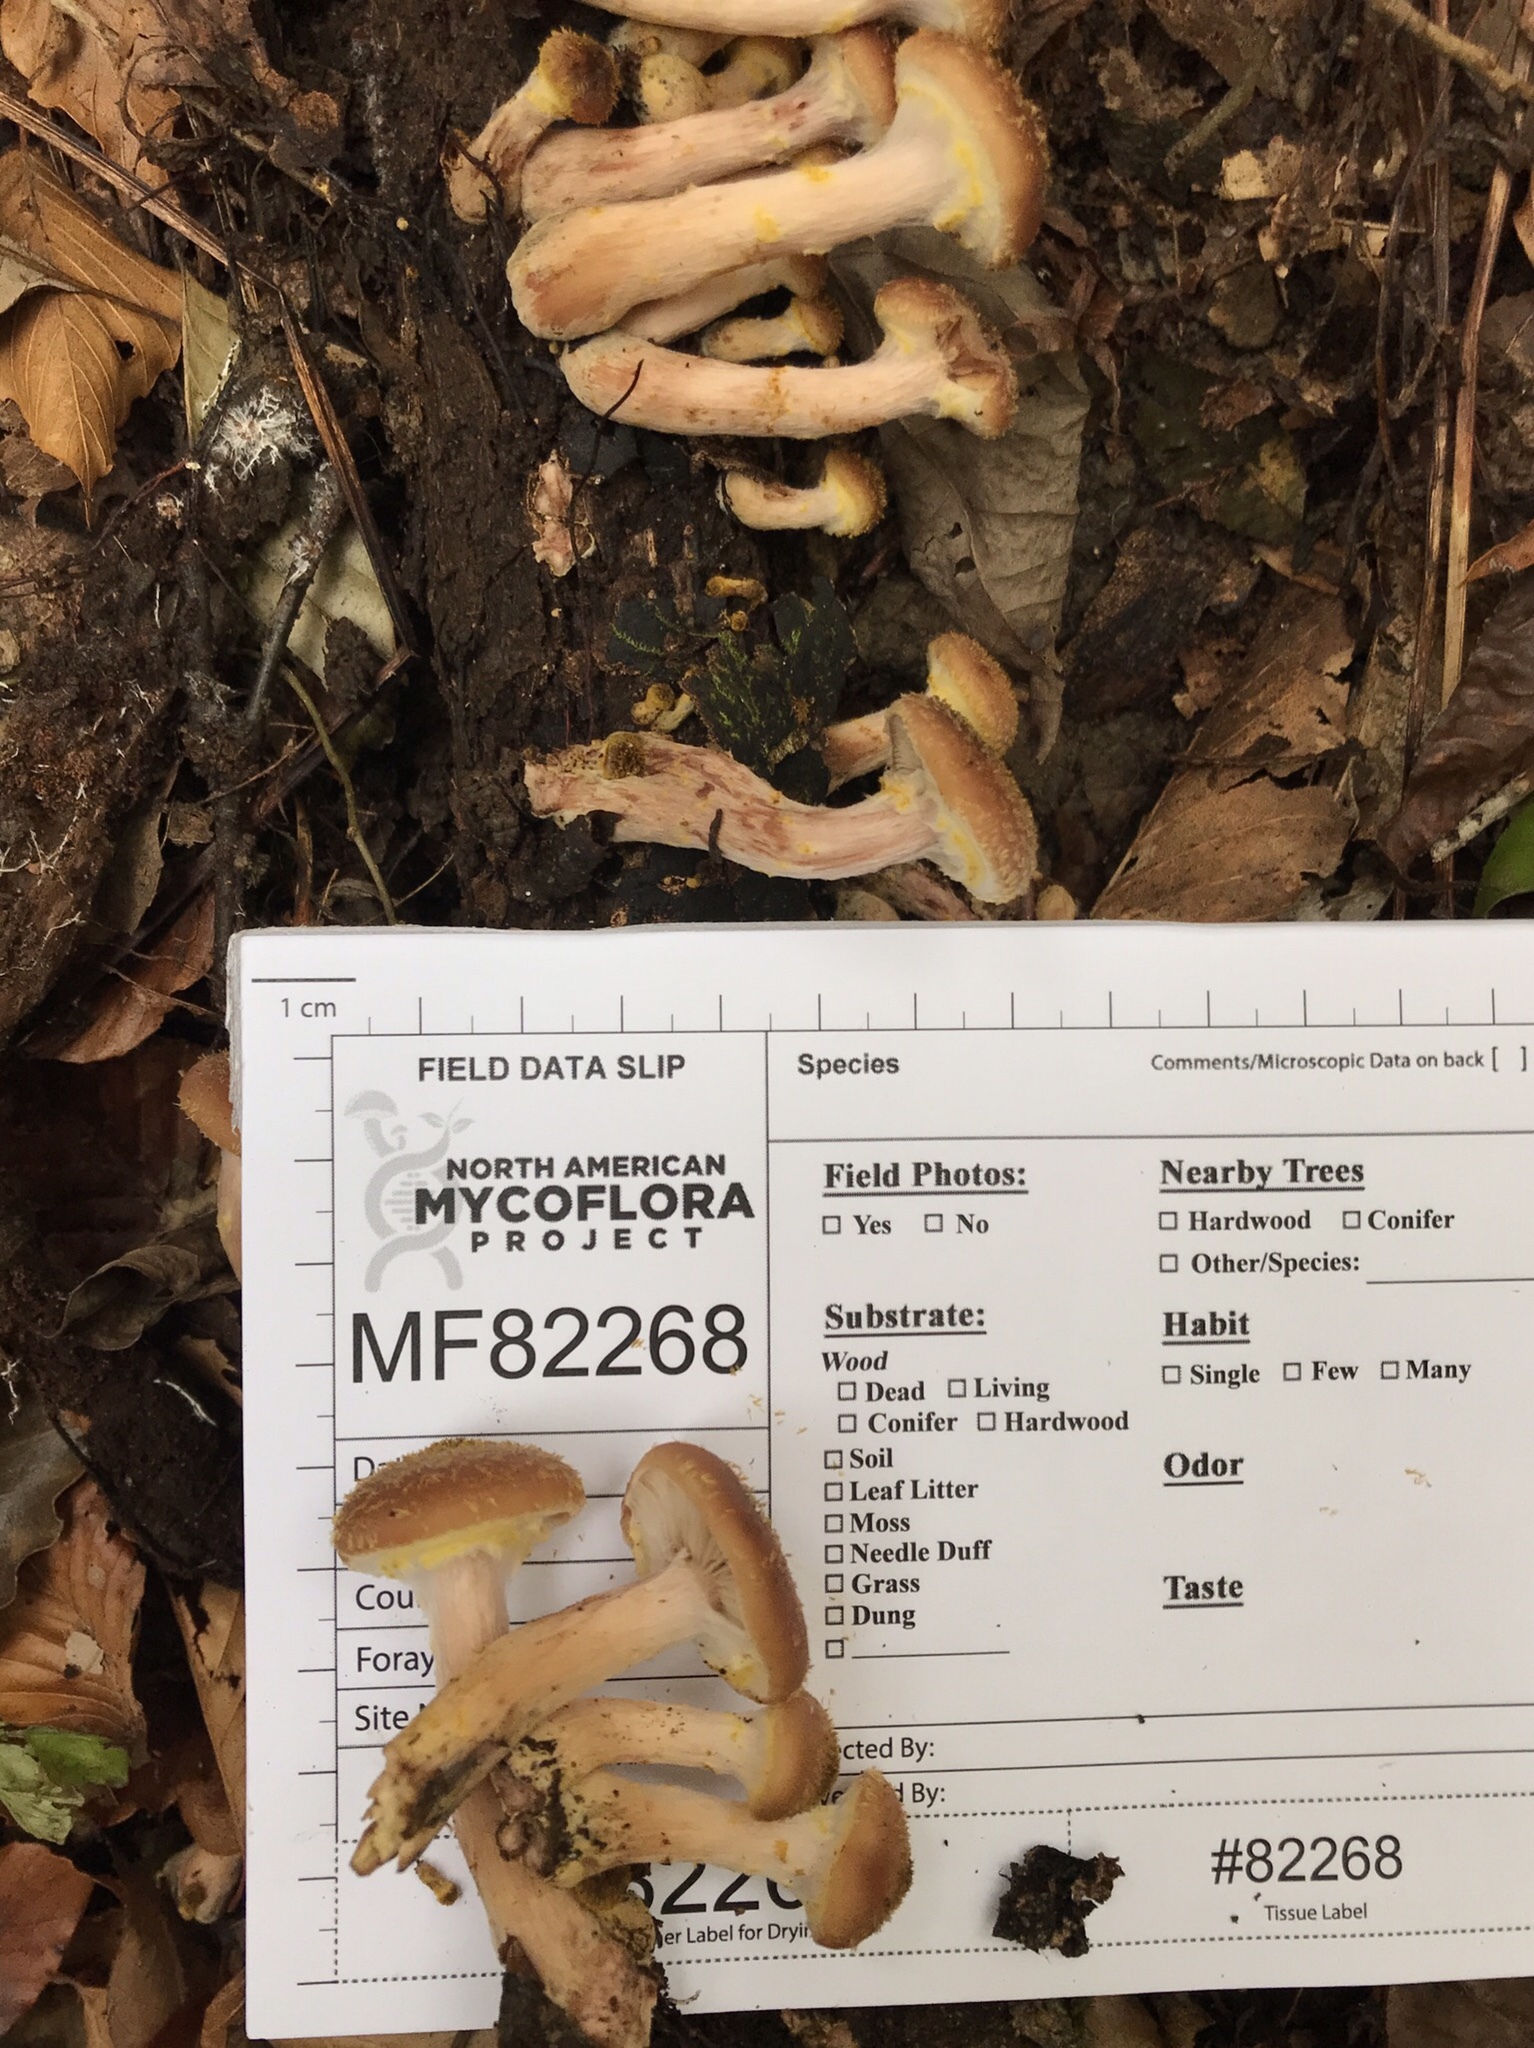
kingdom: Fungi
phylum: Basidiomycota
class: Agaricomycetes
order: Agaricales
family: Physalacriaceae
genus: Armillaria
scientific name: Armillaria gallica
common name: Bulbous honey fungus
